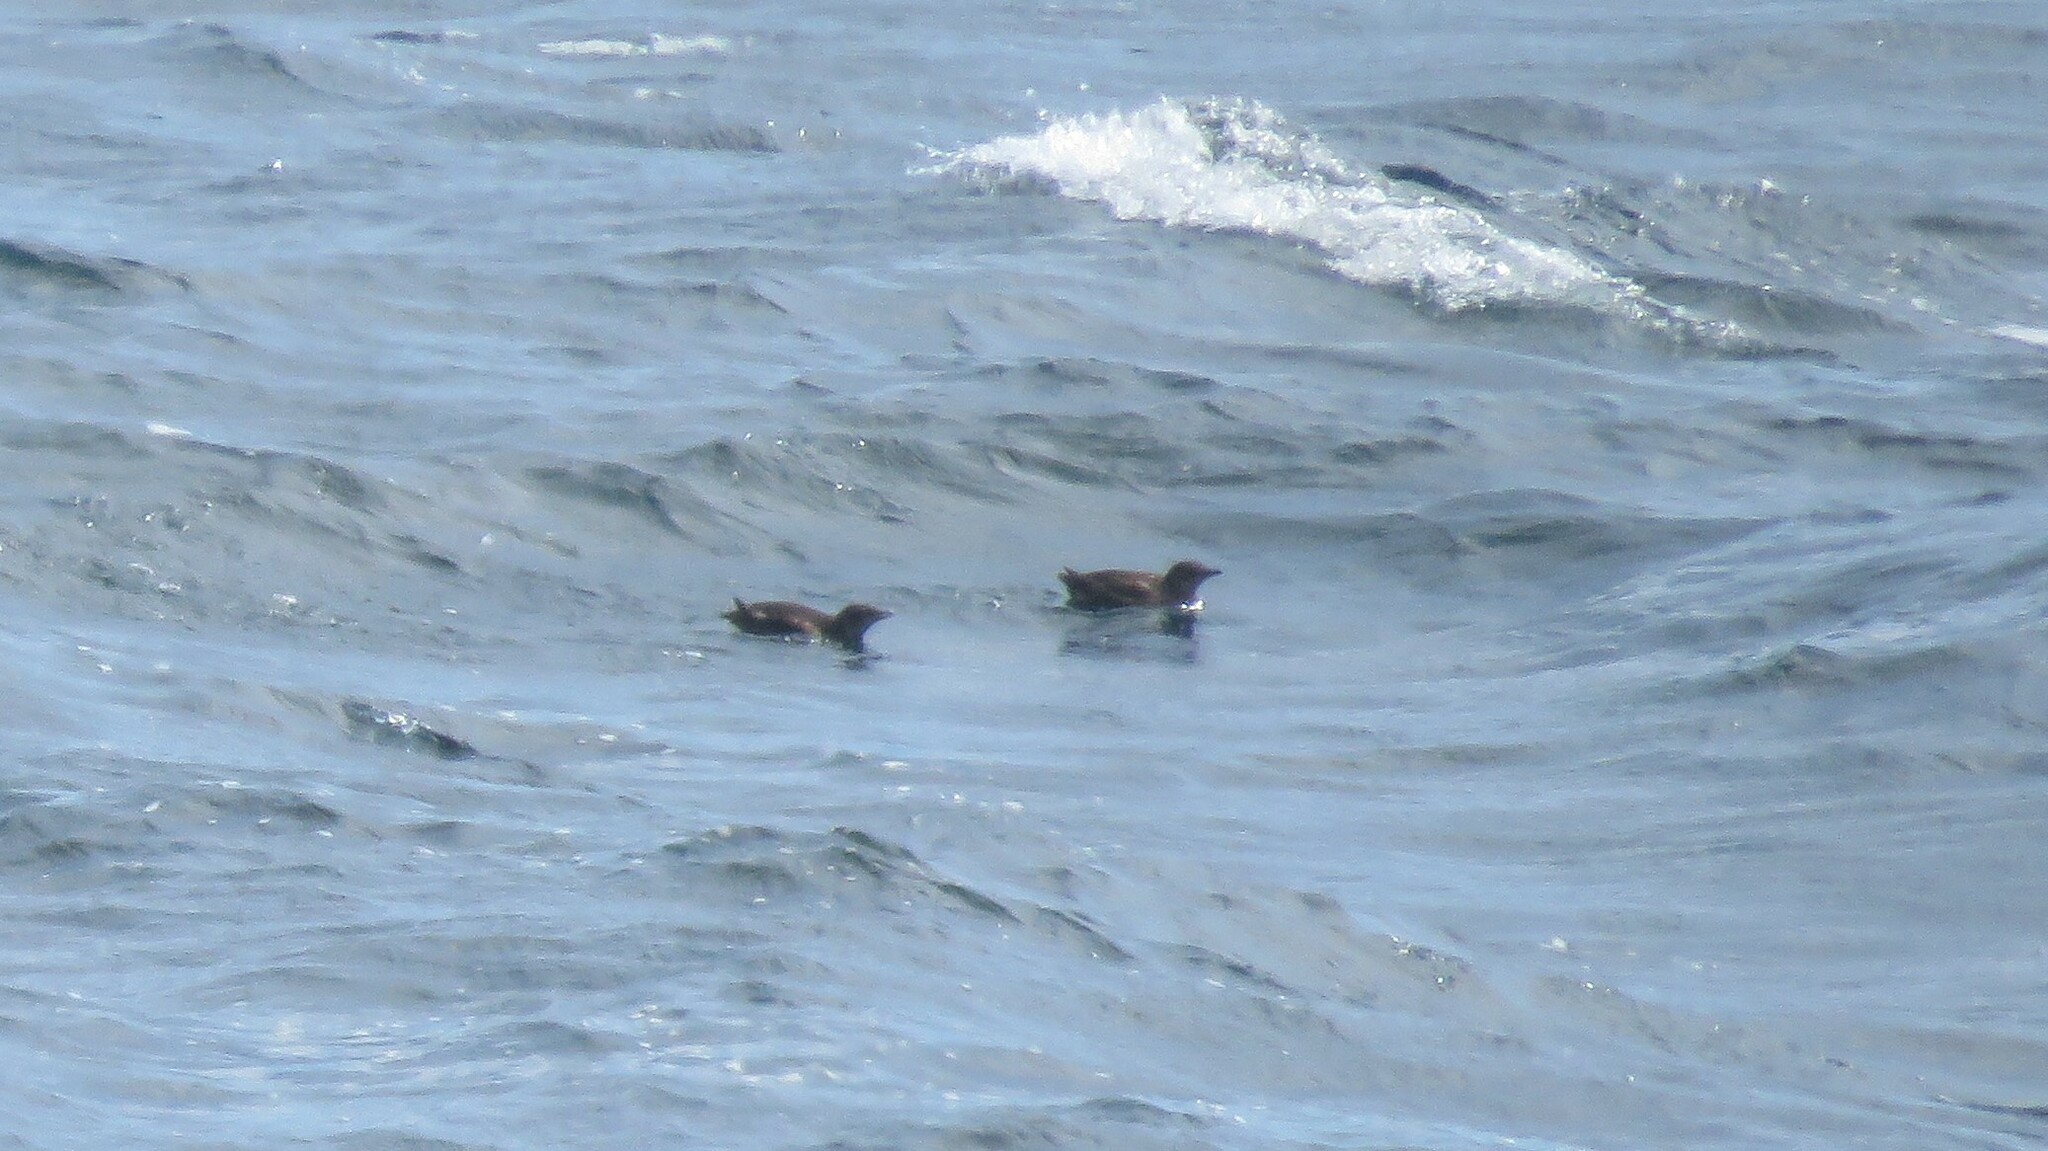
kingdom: Animalia
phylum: Chordata
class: Aves
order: Charadriiformes
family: Alcidae
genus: Brachyramphus
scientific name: Brachyramphus marmoratus
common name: Marbled murrelet
